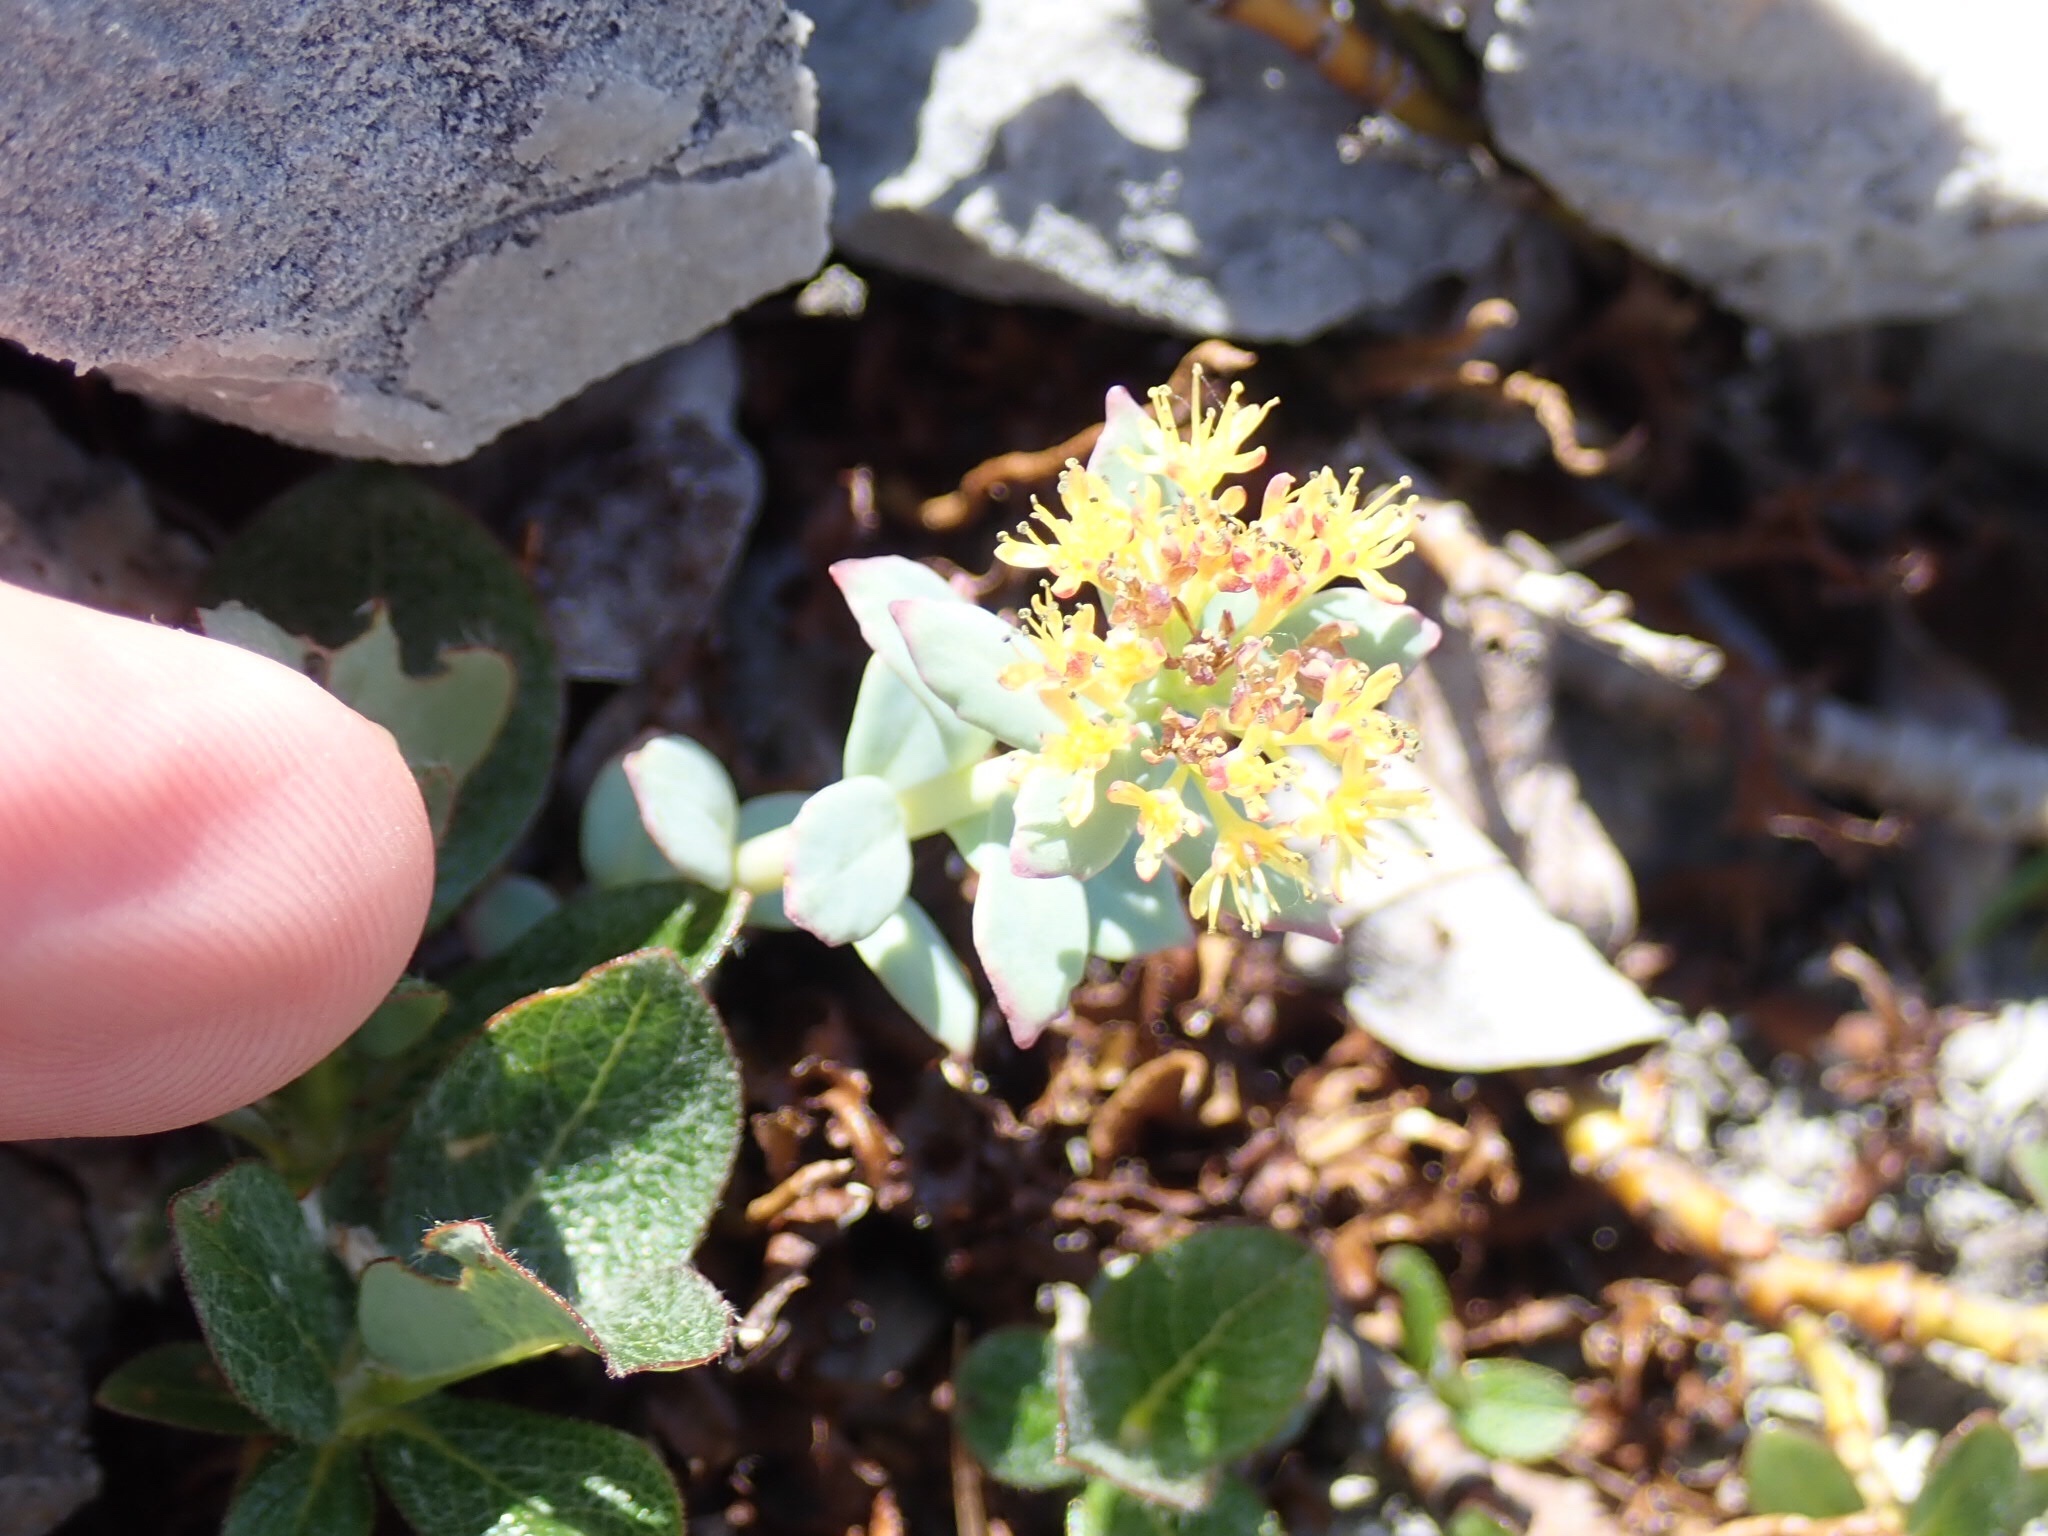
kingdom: Plantae
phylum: Tracheophyta
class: Magnoliopsida
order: Saxifragales
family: Crassulaceae
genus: Rhodiola
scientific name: Rhodiola rosea
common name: Roseroot
